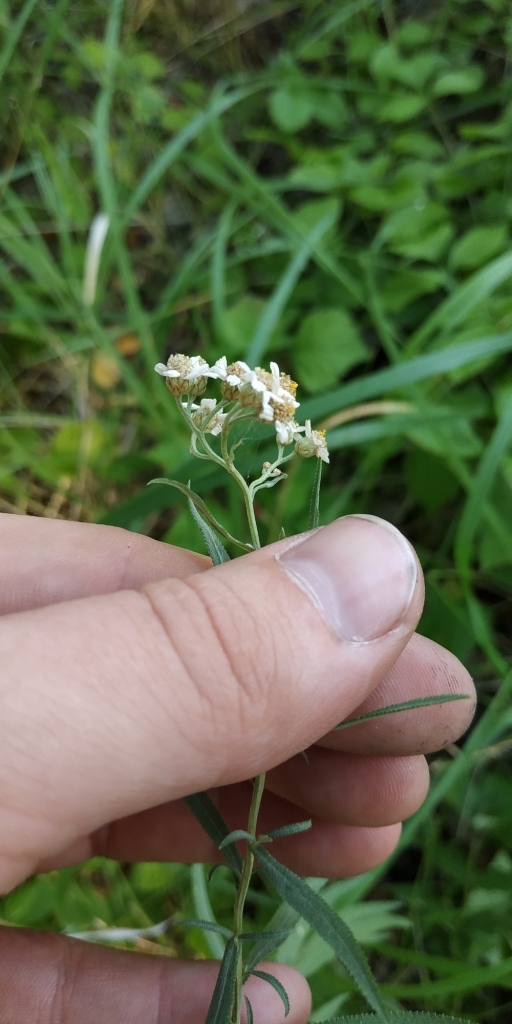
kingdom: Plantae
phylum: Tracheophyta
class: Magnoliopsida
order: Asterales
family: Asteraceae
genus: Achillea
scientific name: Achillea salicifolia
